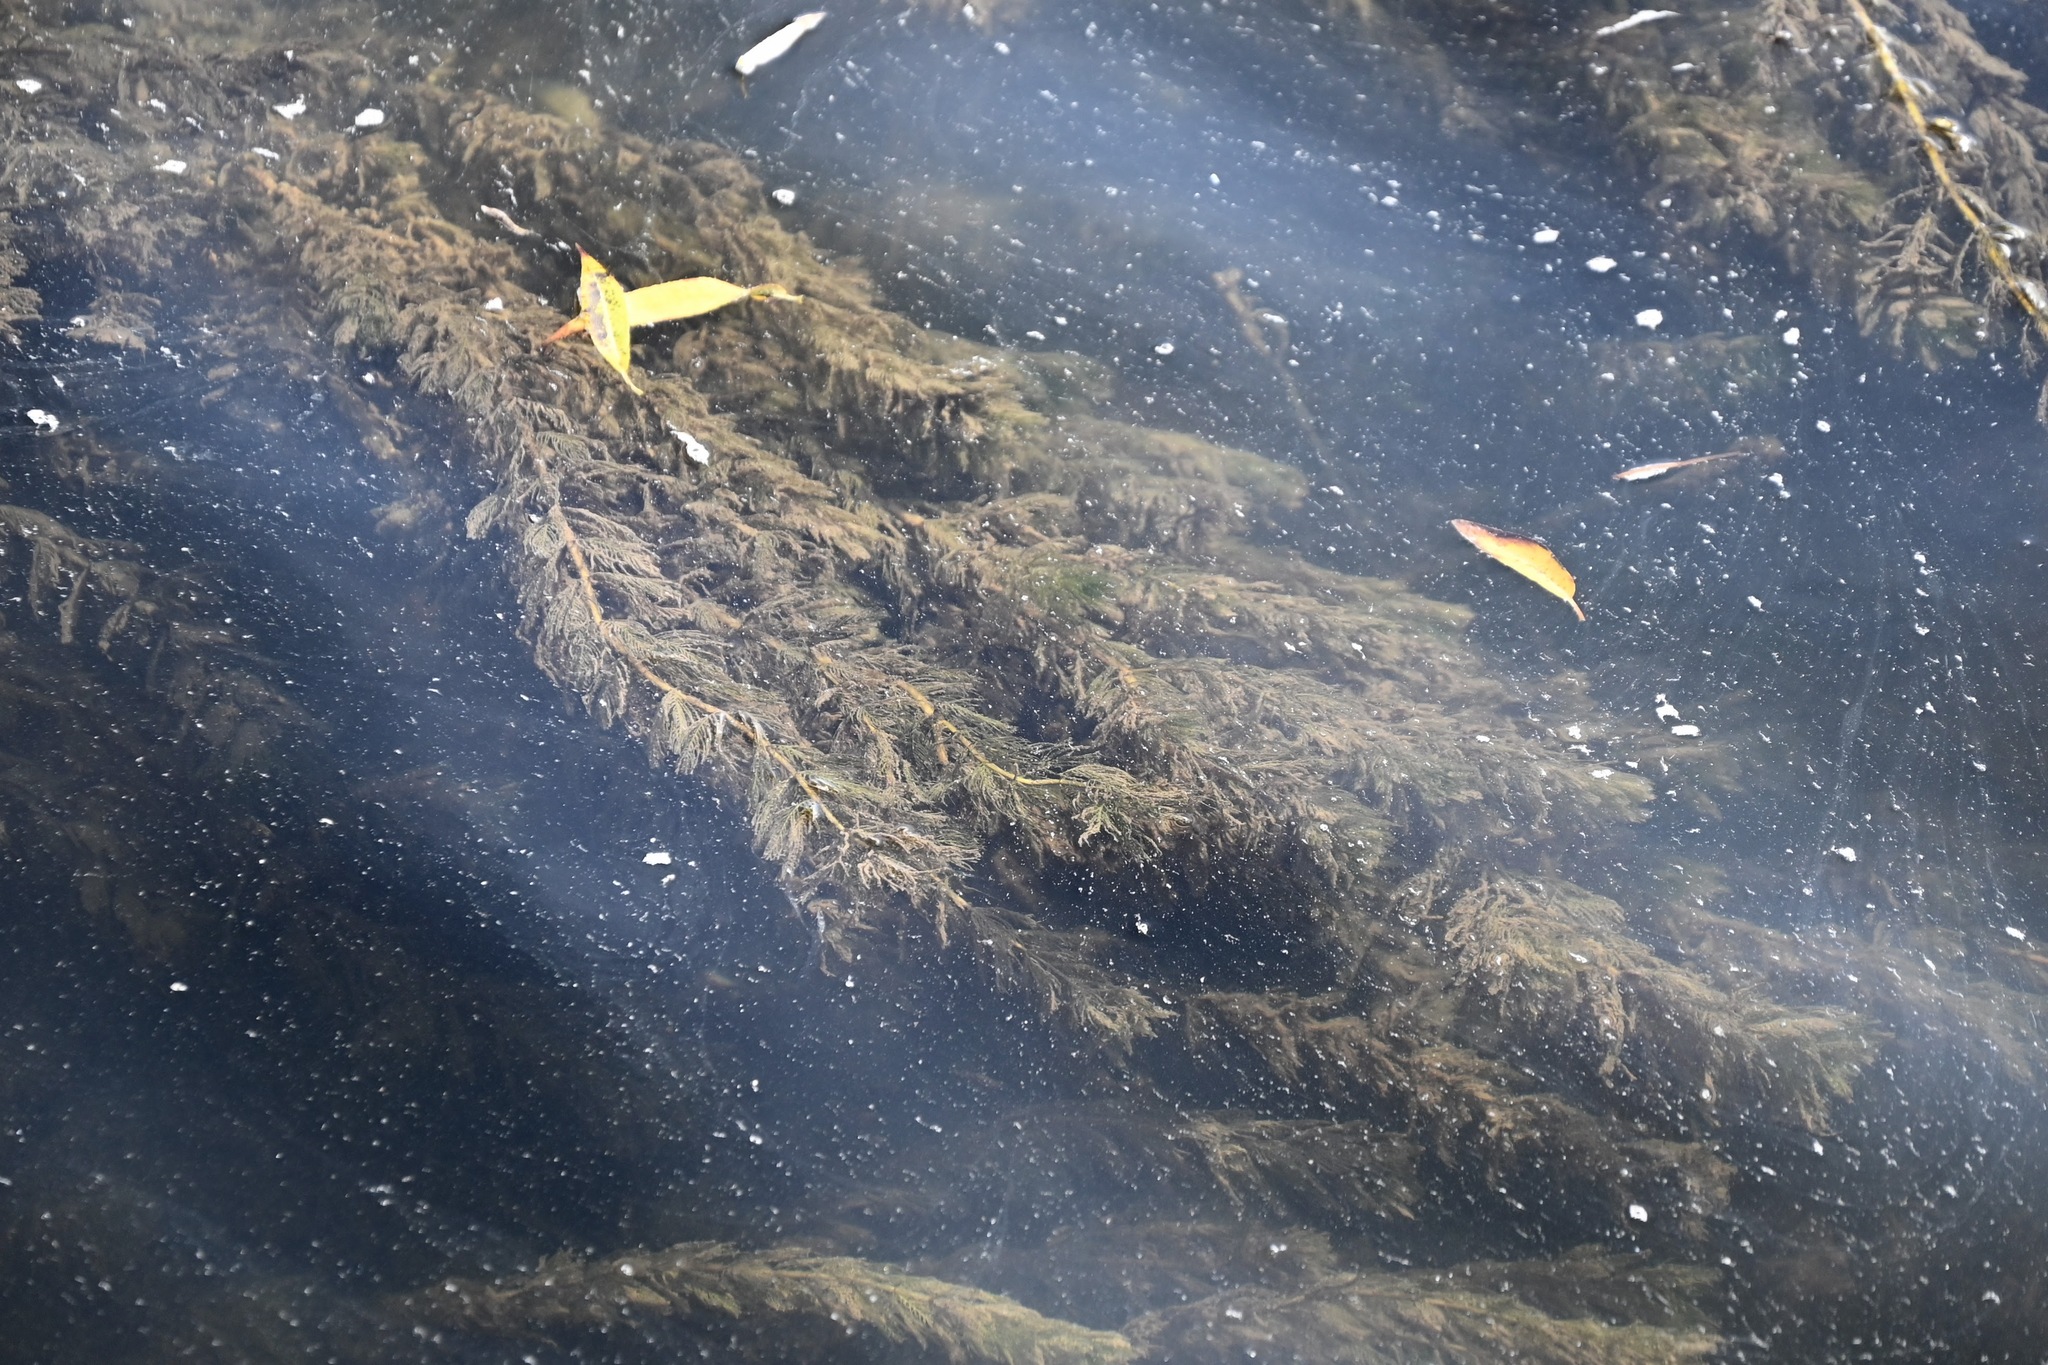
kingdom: Plantae
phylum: Tracheophyta
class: Magnoliopsida
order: Saxifragales
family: Haloragaceae
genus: Myriophyllum
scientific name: Myriophyllum spicatum
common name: Spiked water-milfoil
